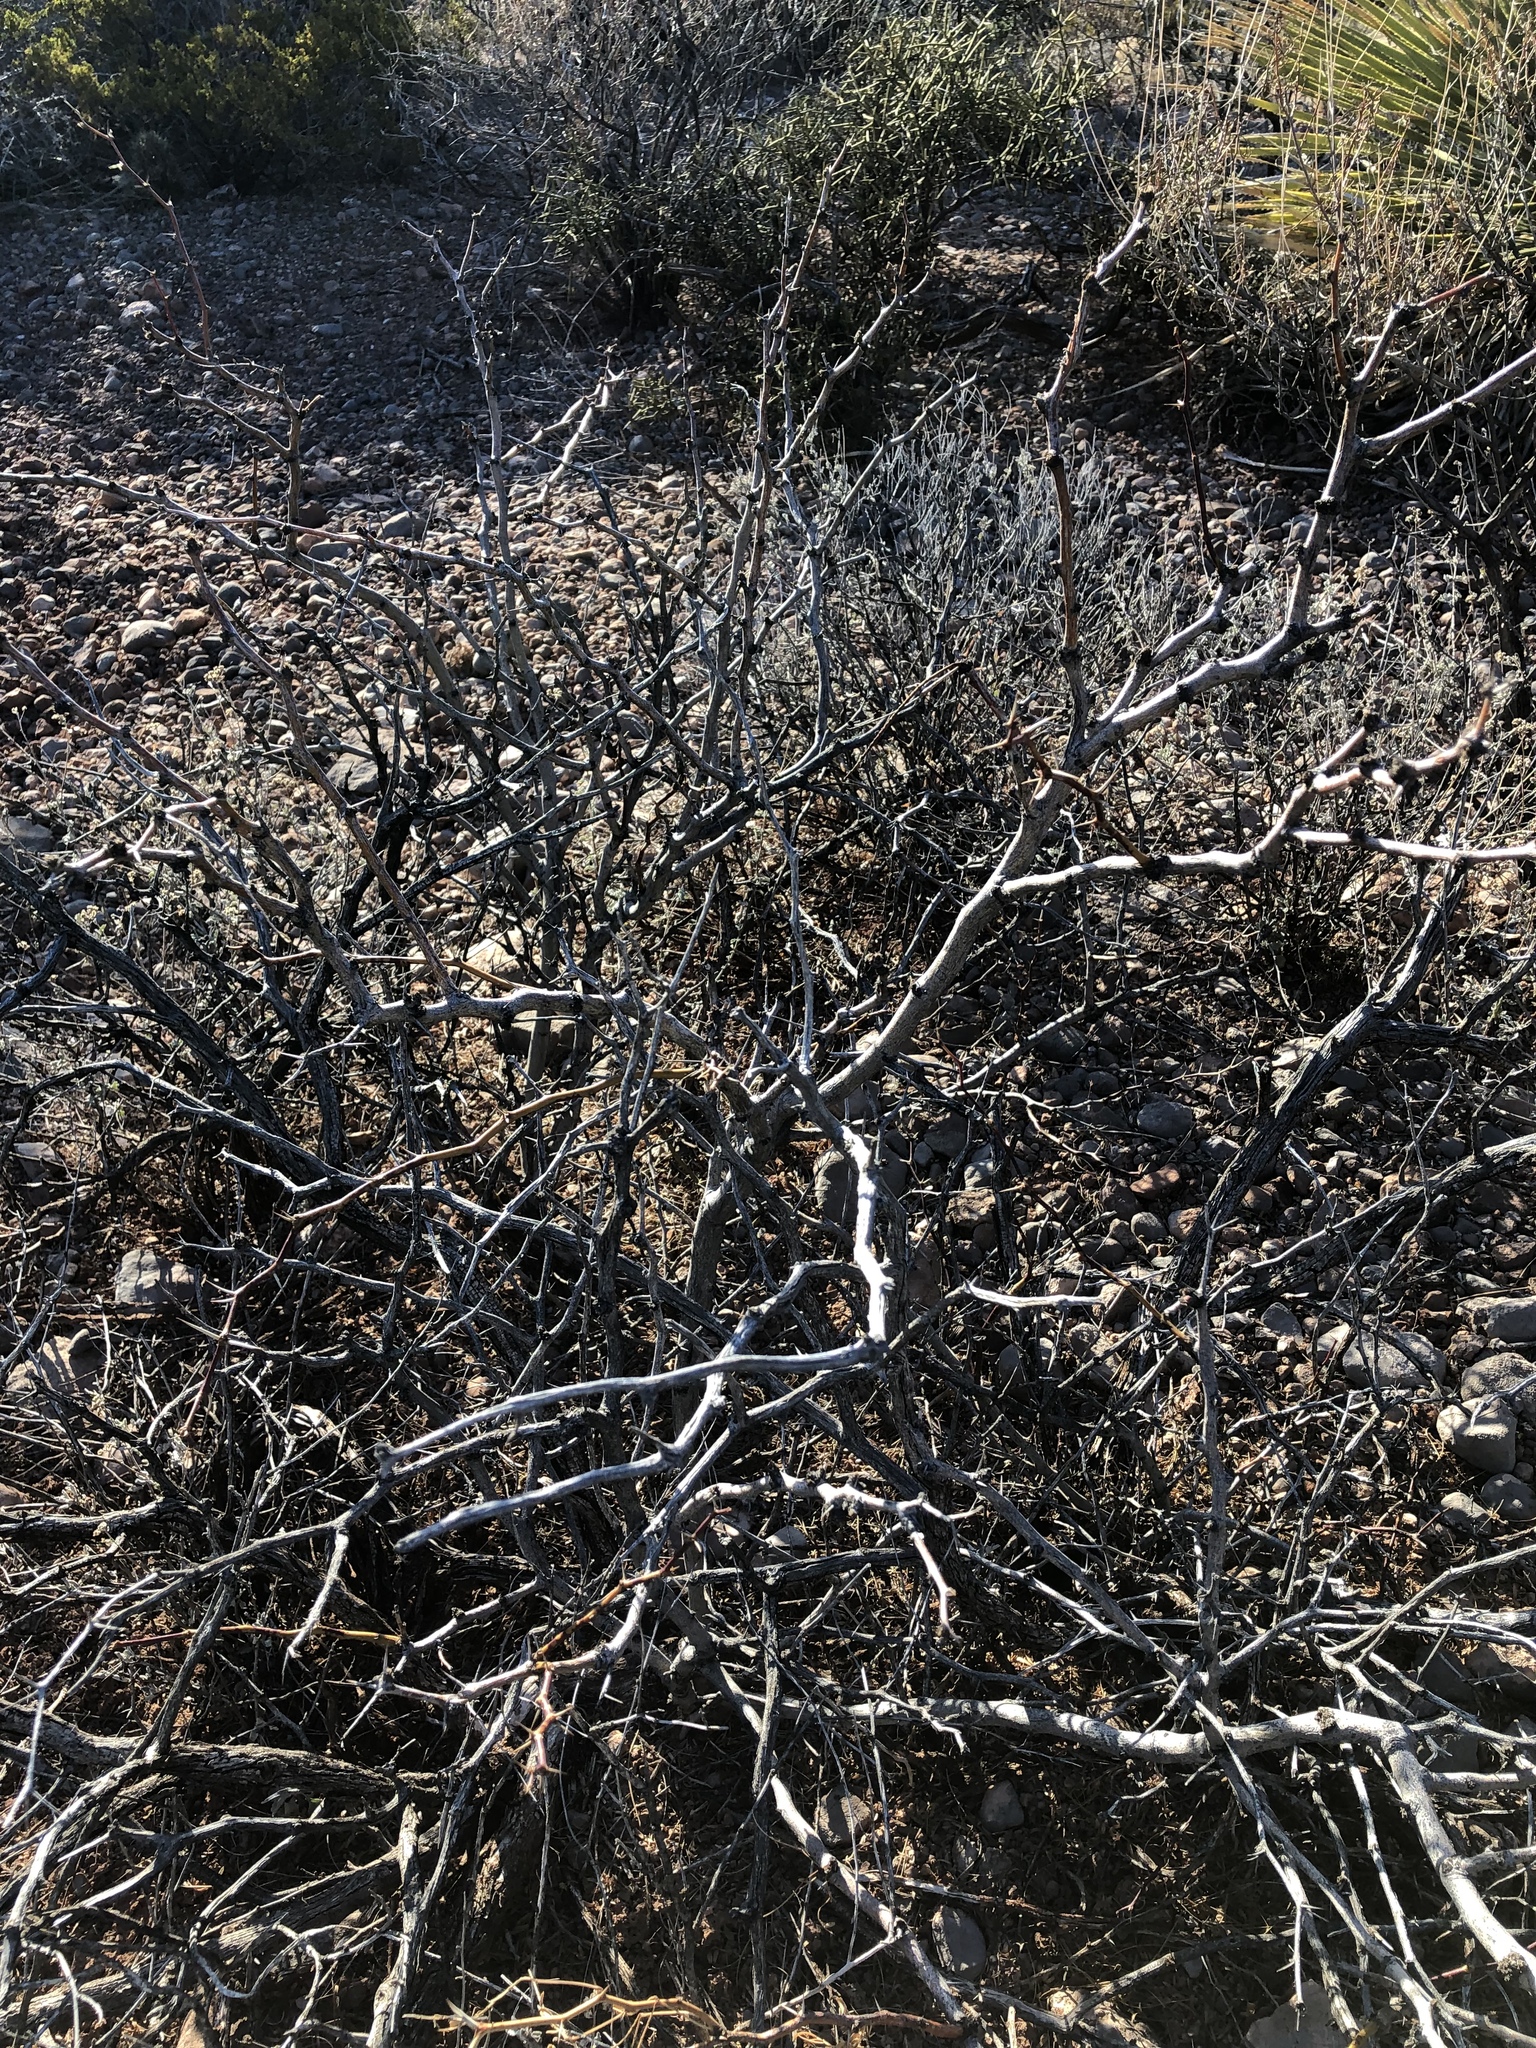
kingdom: Plantae
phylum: Tracheophyta
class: Magnoliopsida
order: Fabales
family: Fabaceae
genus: Prosopis
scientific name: Prosopis glandulosa
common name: Honey mesquite
